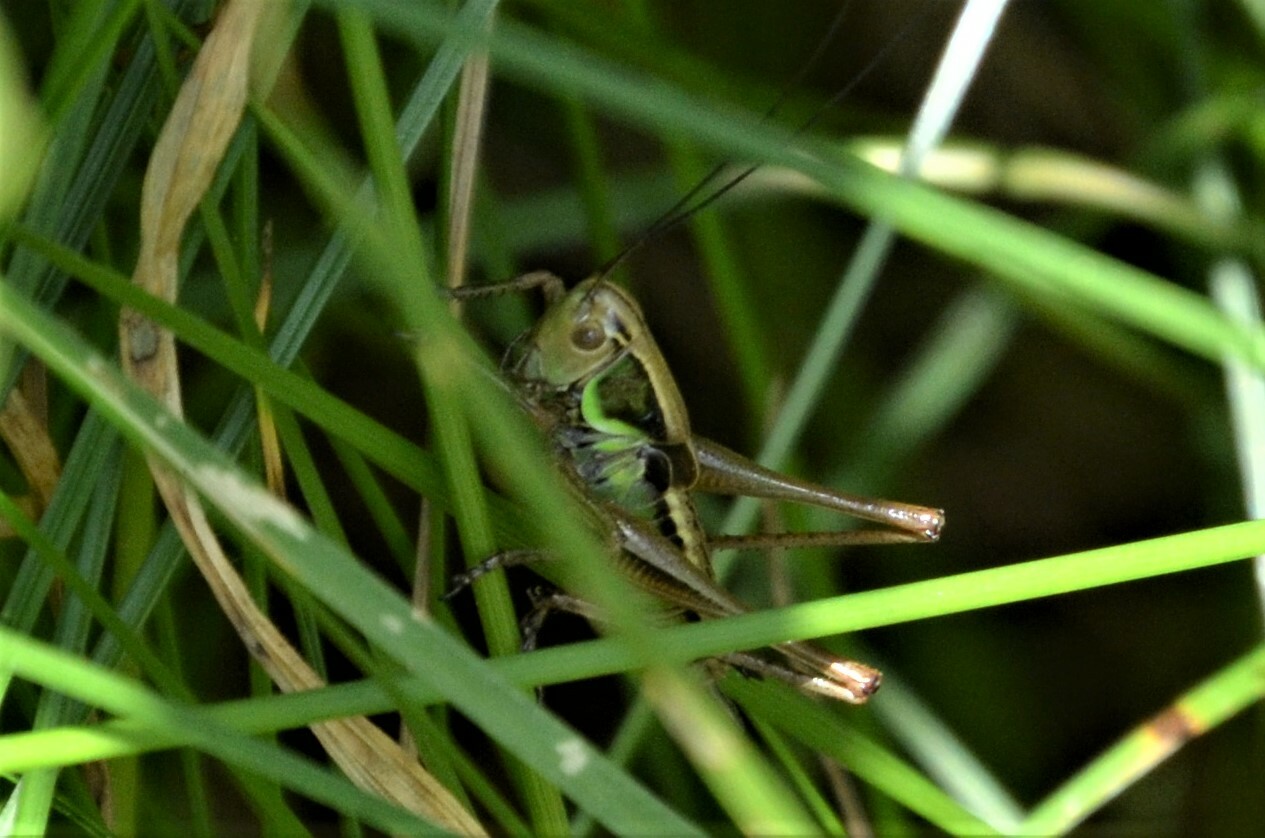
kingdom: Animalia
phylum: Arthropoda
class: Insecta
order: Orthoptera
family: Tettigoniidae
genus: Roeseliana
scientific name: Roeseliana roeselii
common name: Roesel's bush cricket
